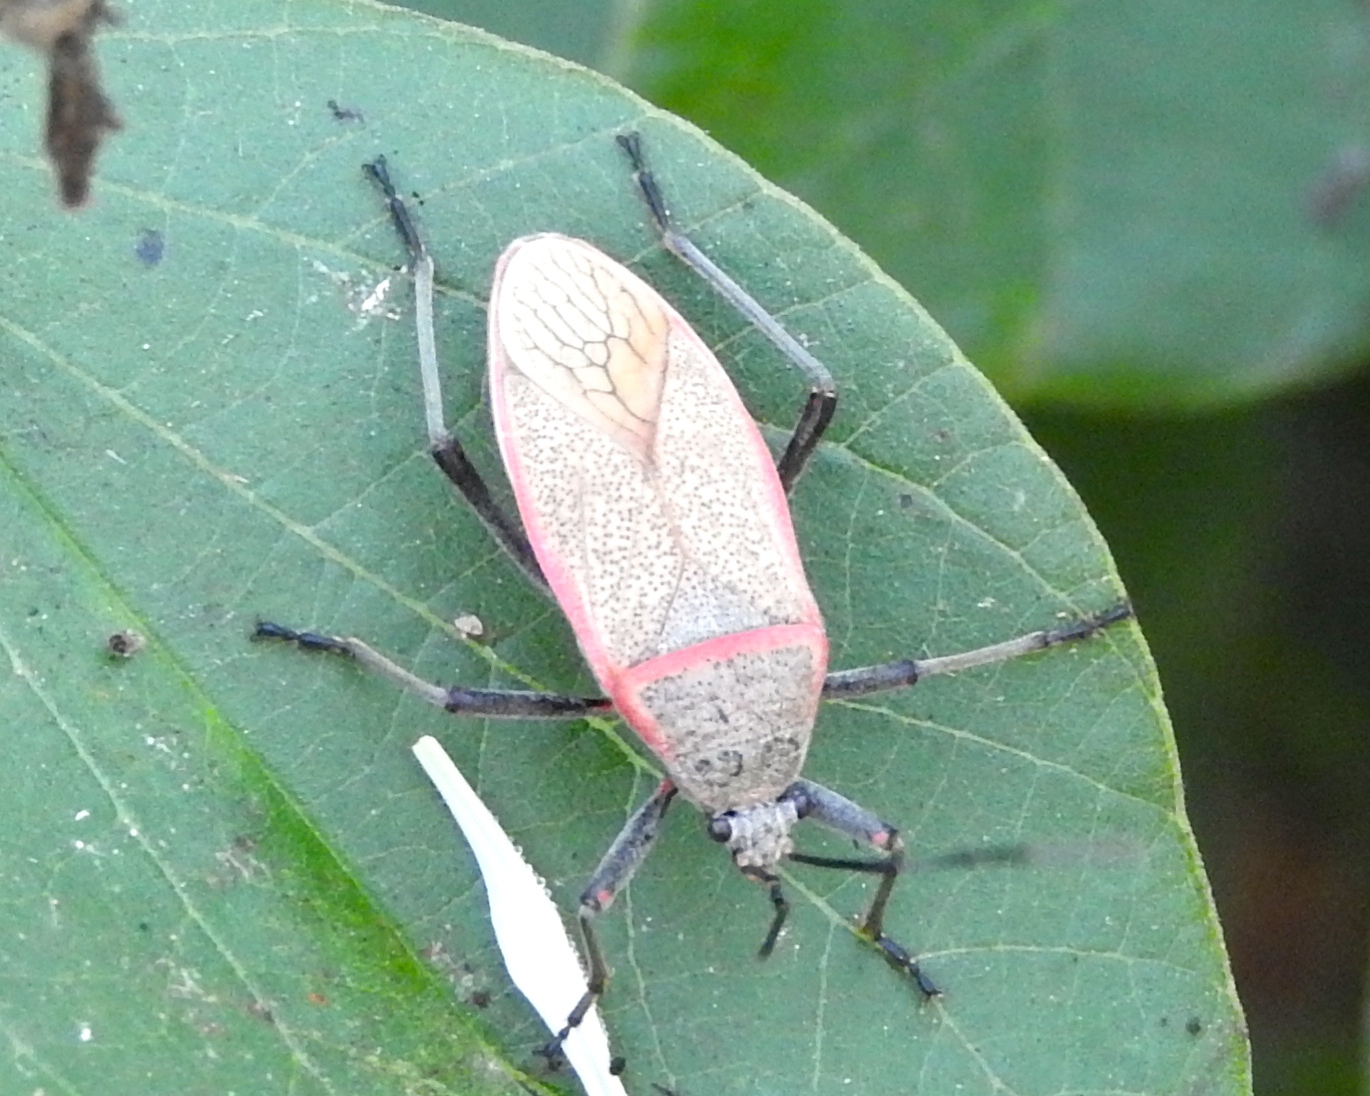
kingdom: Animalia
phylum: Arthropoda
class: Insecta
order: Hemiptera
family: Largidae
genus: Largus
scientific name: Largus
